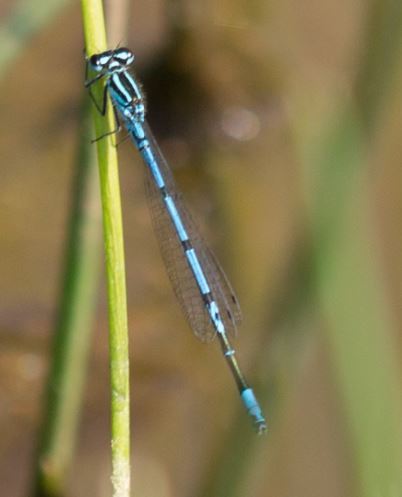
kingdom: Animalia
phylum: Arthropoda
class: Insecta
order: Odonata
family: Coenagrionidae
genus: Coenagrion
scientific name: Coenagrion puella
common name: Azure damselfly
